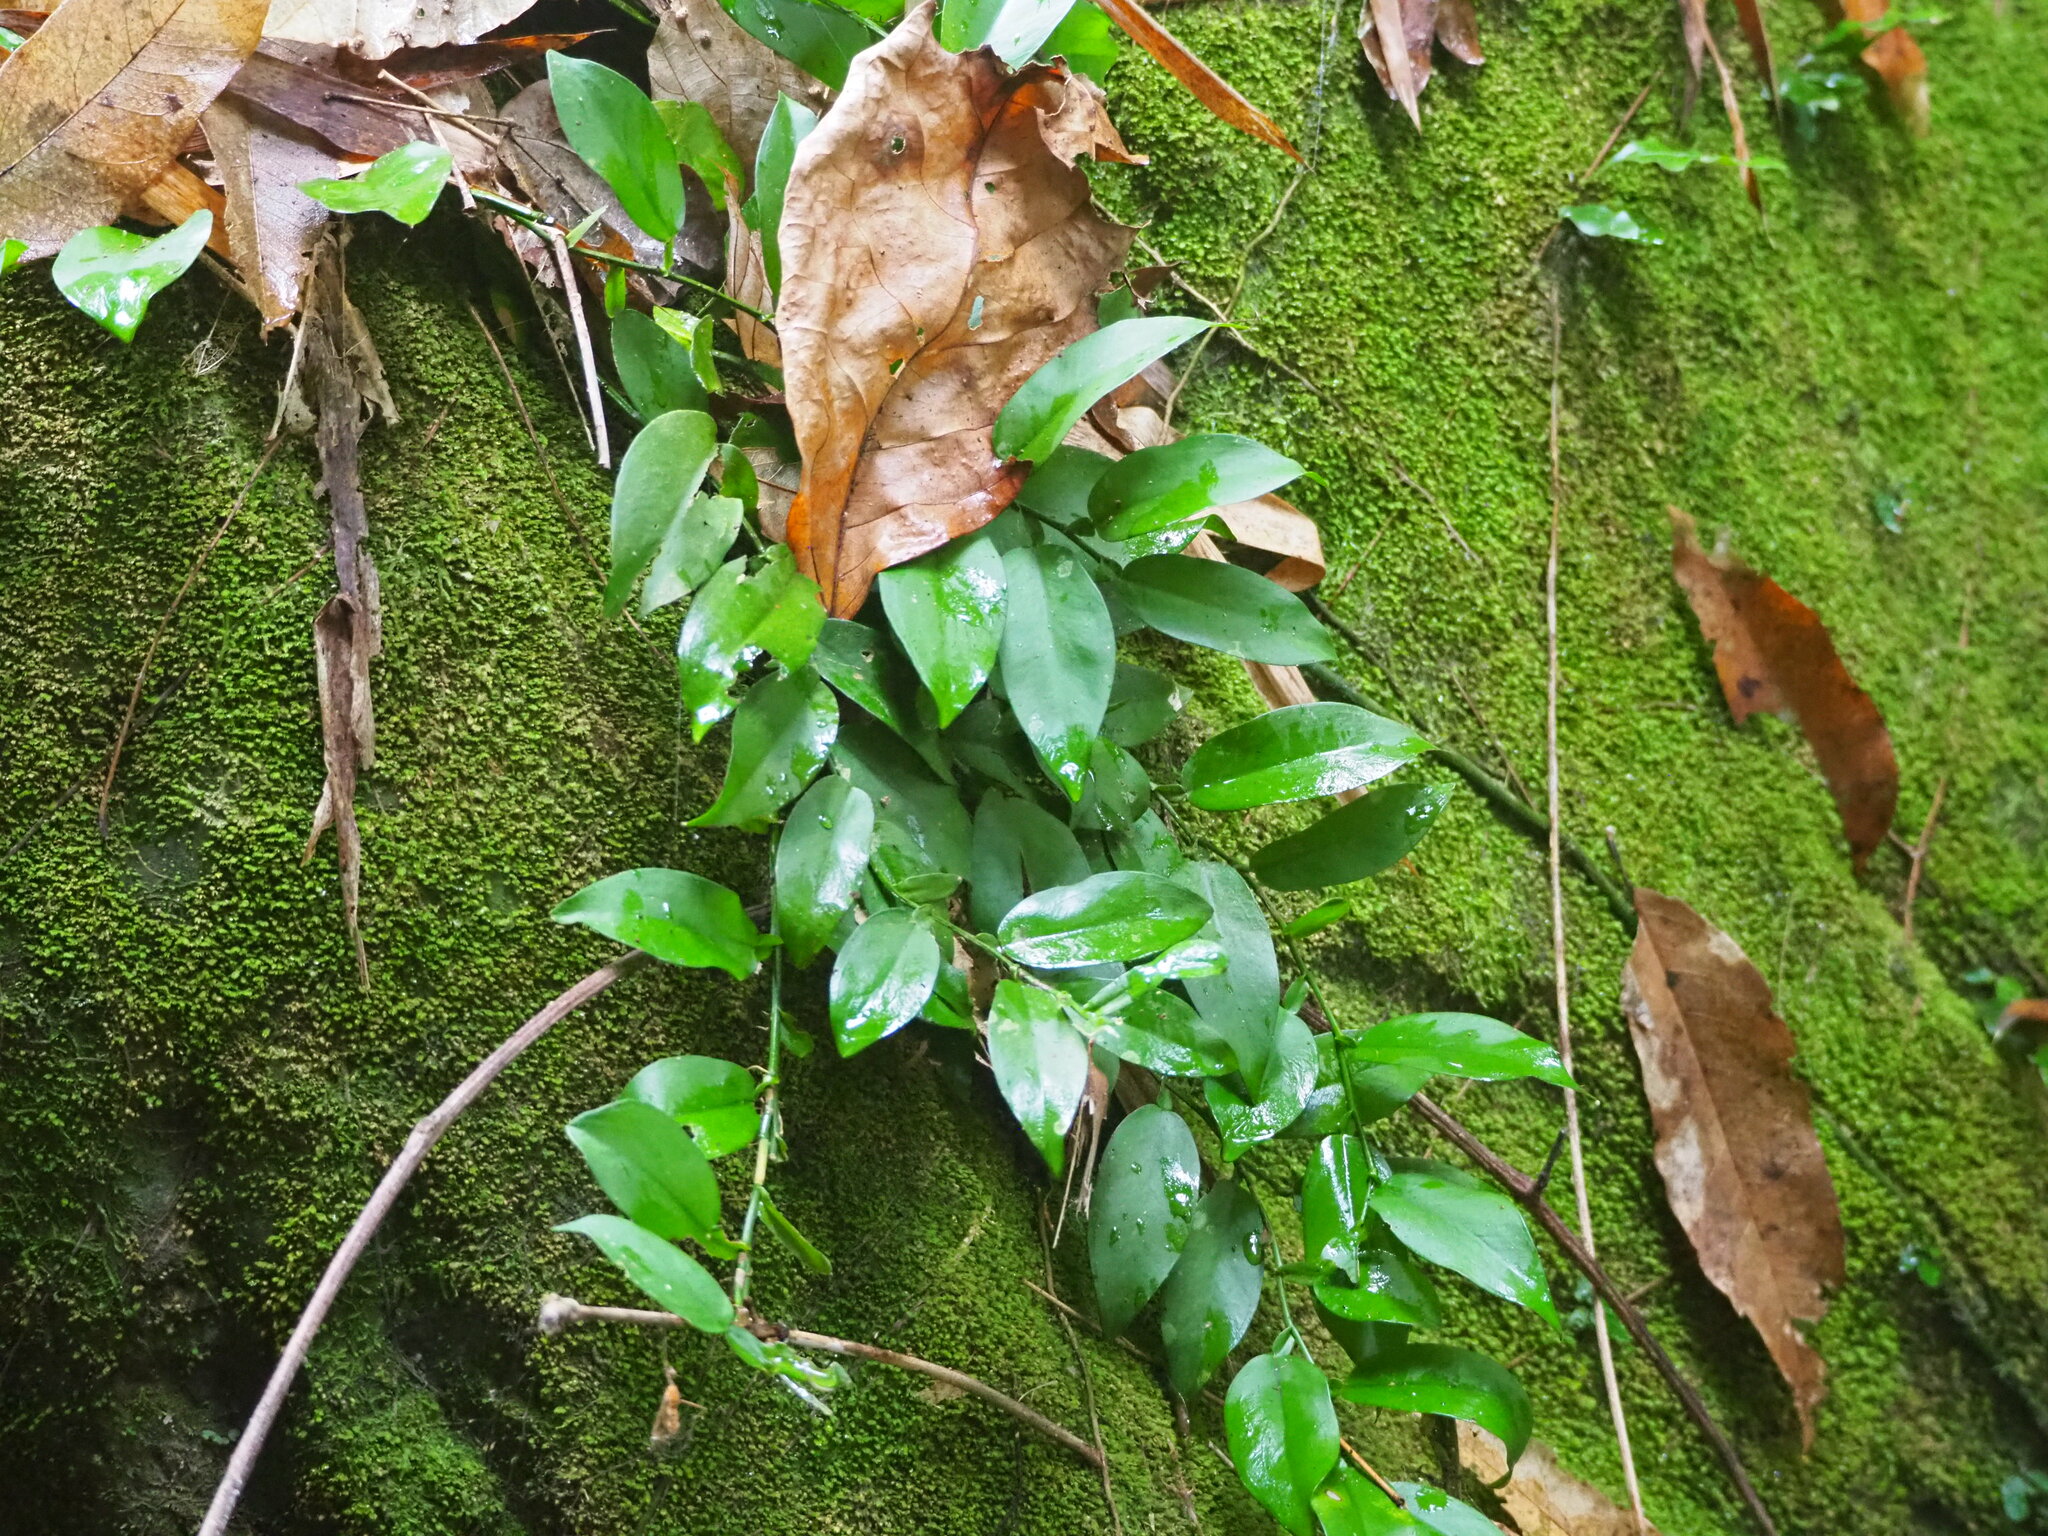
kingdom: Plantae
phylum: Tracheophyta
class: Liliopsida
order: Alismatales
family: Araceae
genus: Pothos
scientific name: Pothos chinensis
